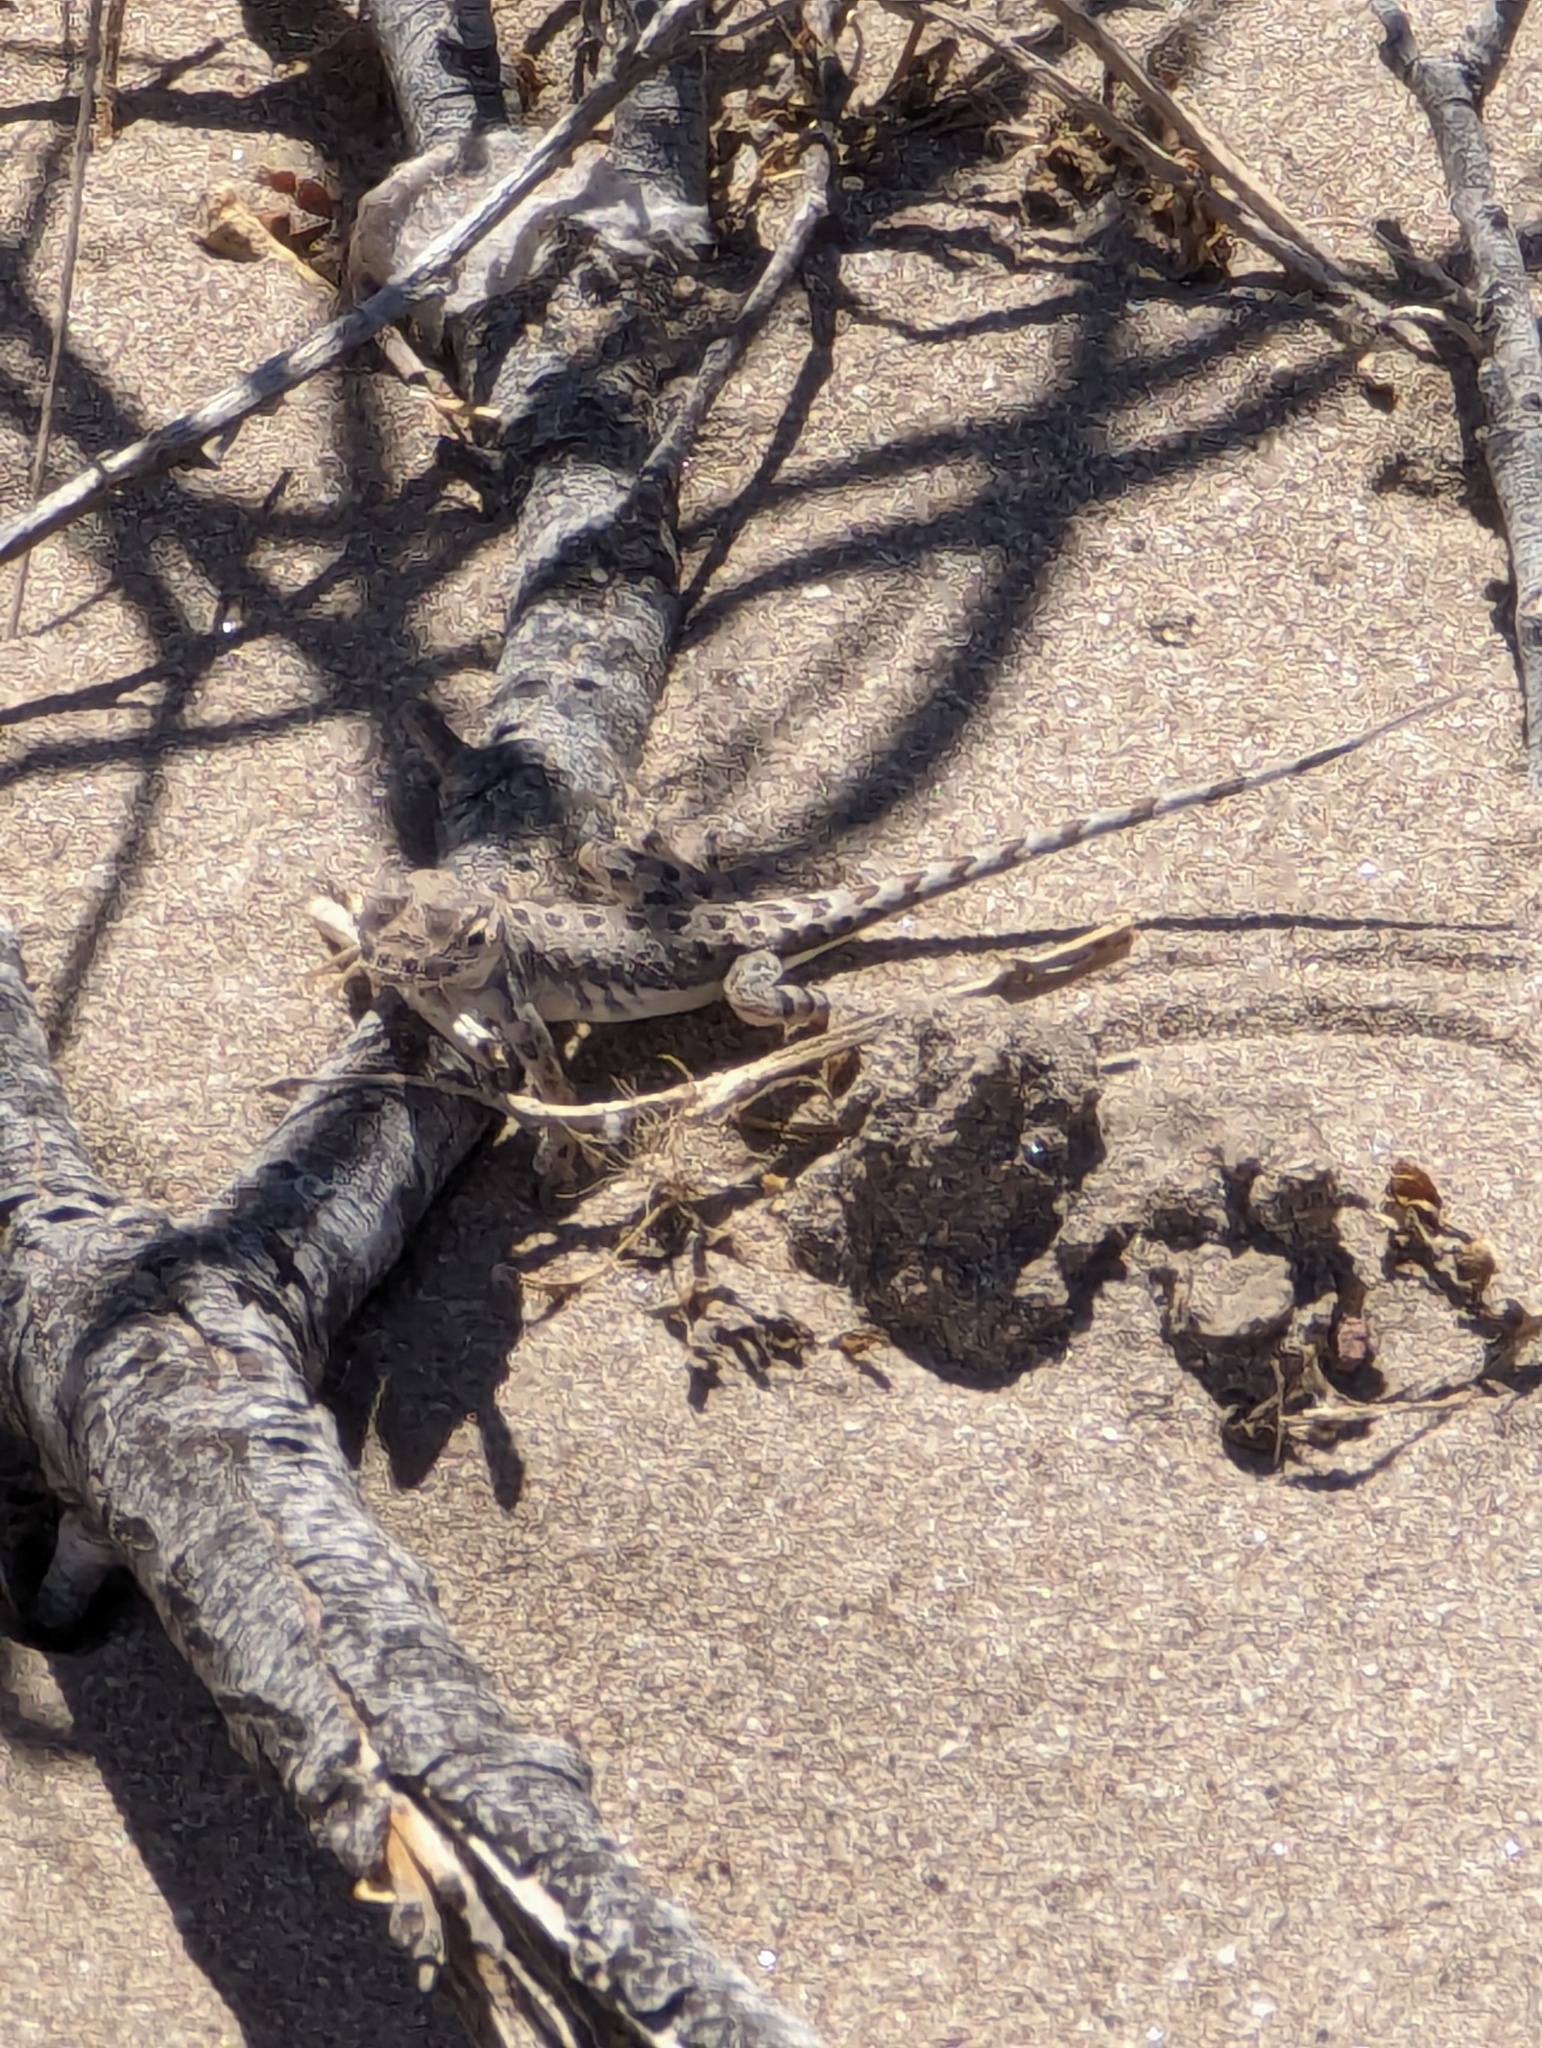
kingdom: Animalia
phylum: Chordata
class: Squamata
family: Phrynosomatidae
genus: Callisaurus
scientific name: Callisaurus draconoides
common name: Zebra-tailed lizard
